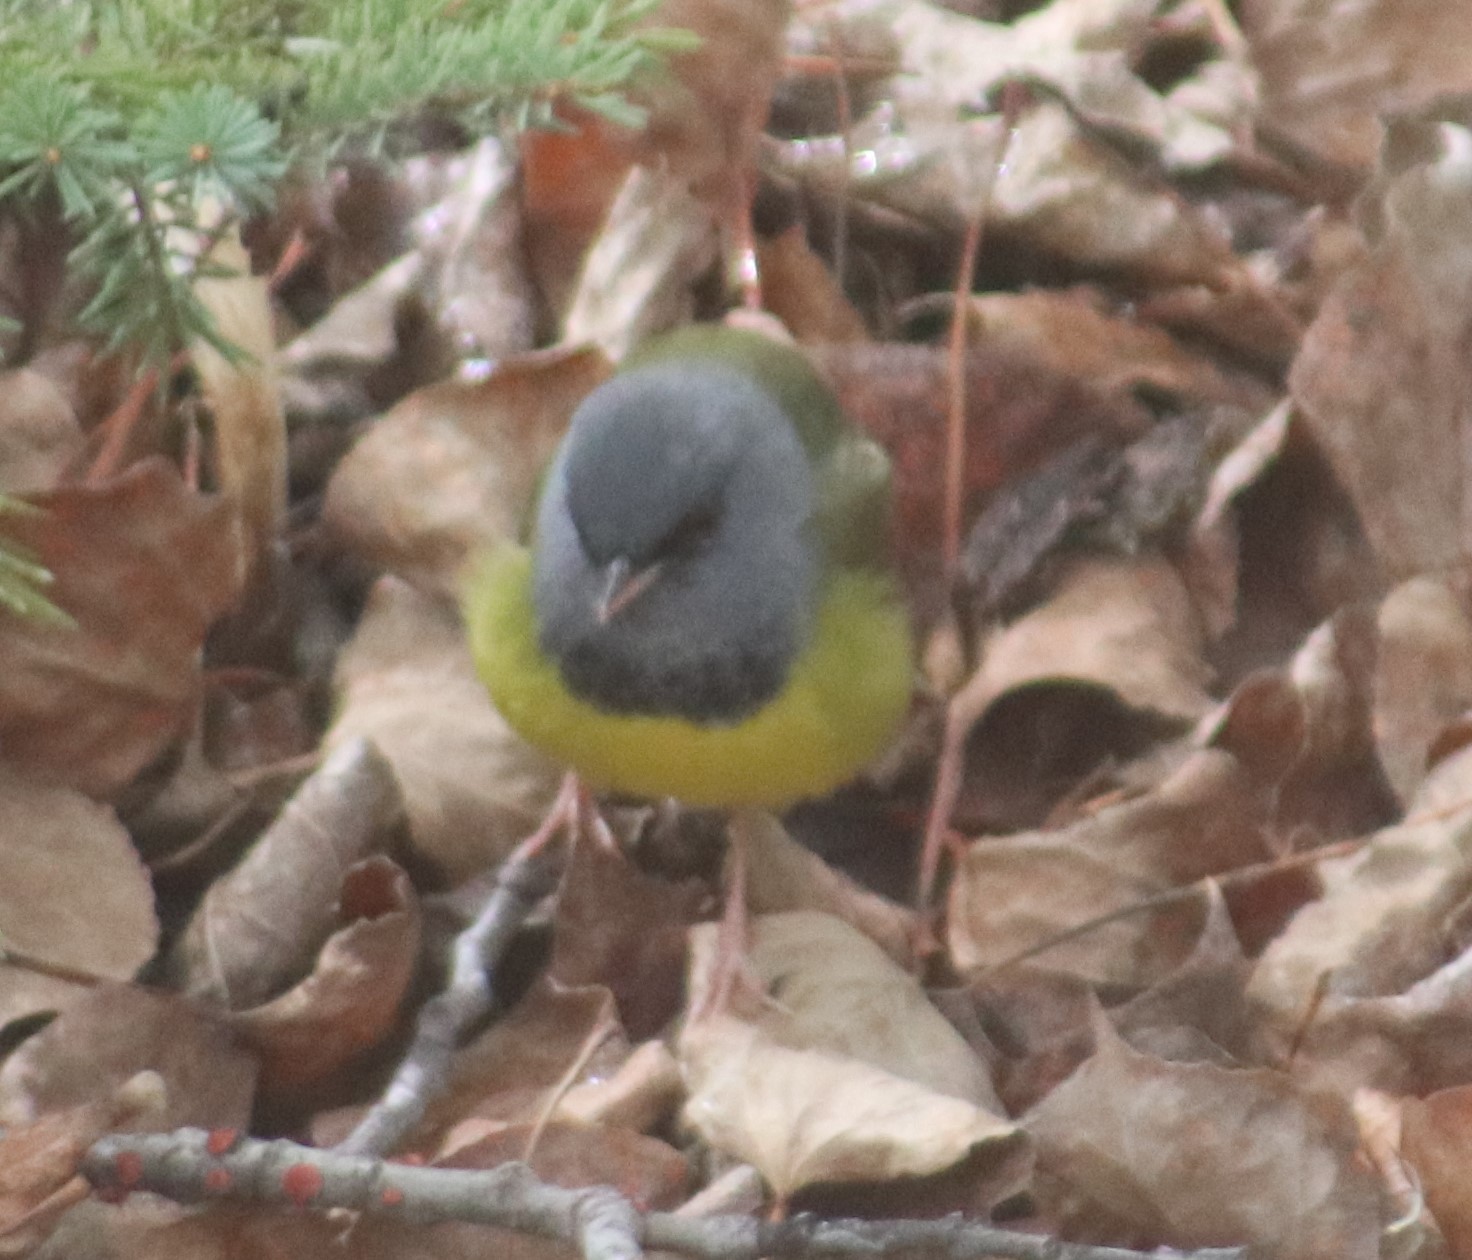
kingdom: Animalia
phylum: Chordata
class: Aves
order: Passeriformes
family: Parulidae
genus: Geothlypis
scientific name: Geothlypis philadelphia
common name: Mourning warbler
